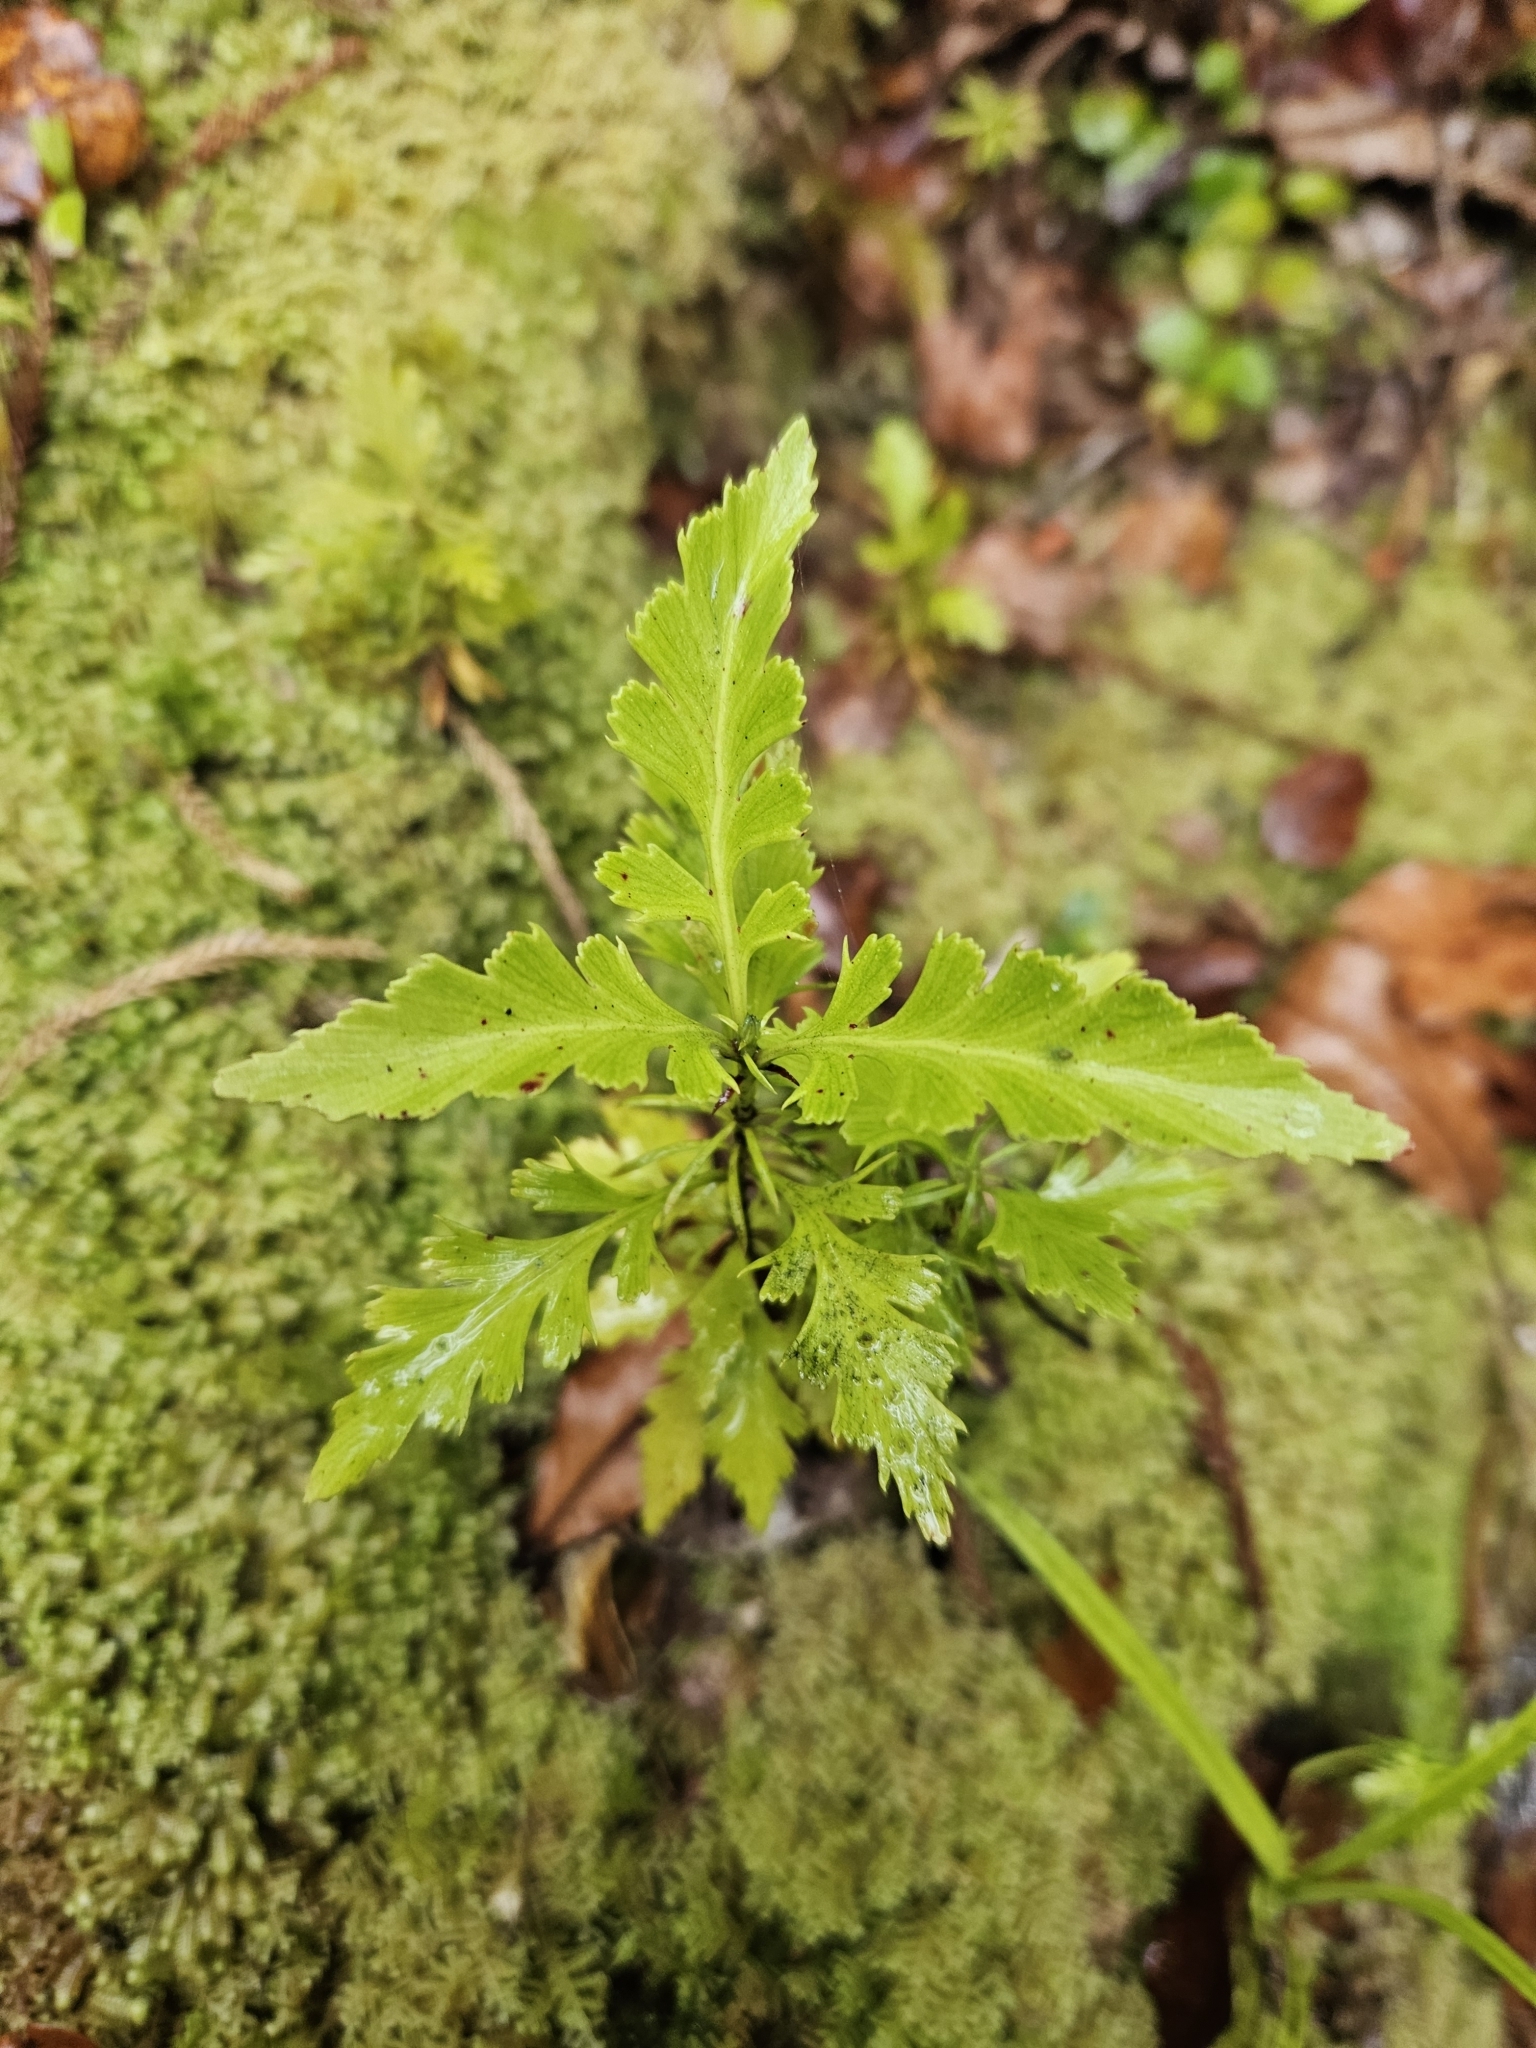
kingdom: Plantae
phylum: Tracheophyta
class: Pinopsida
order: Pinales
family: Phyllocladaceae
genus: Phyllocladus
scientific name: Phyllocladus trichomanoides
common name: Celery pine
